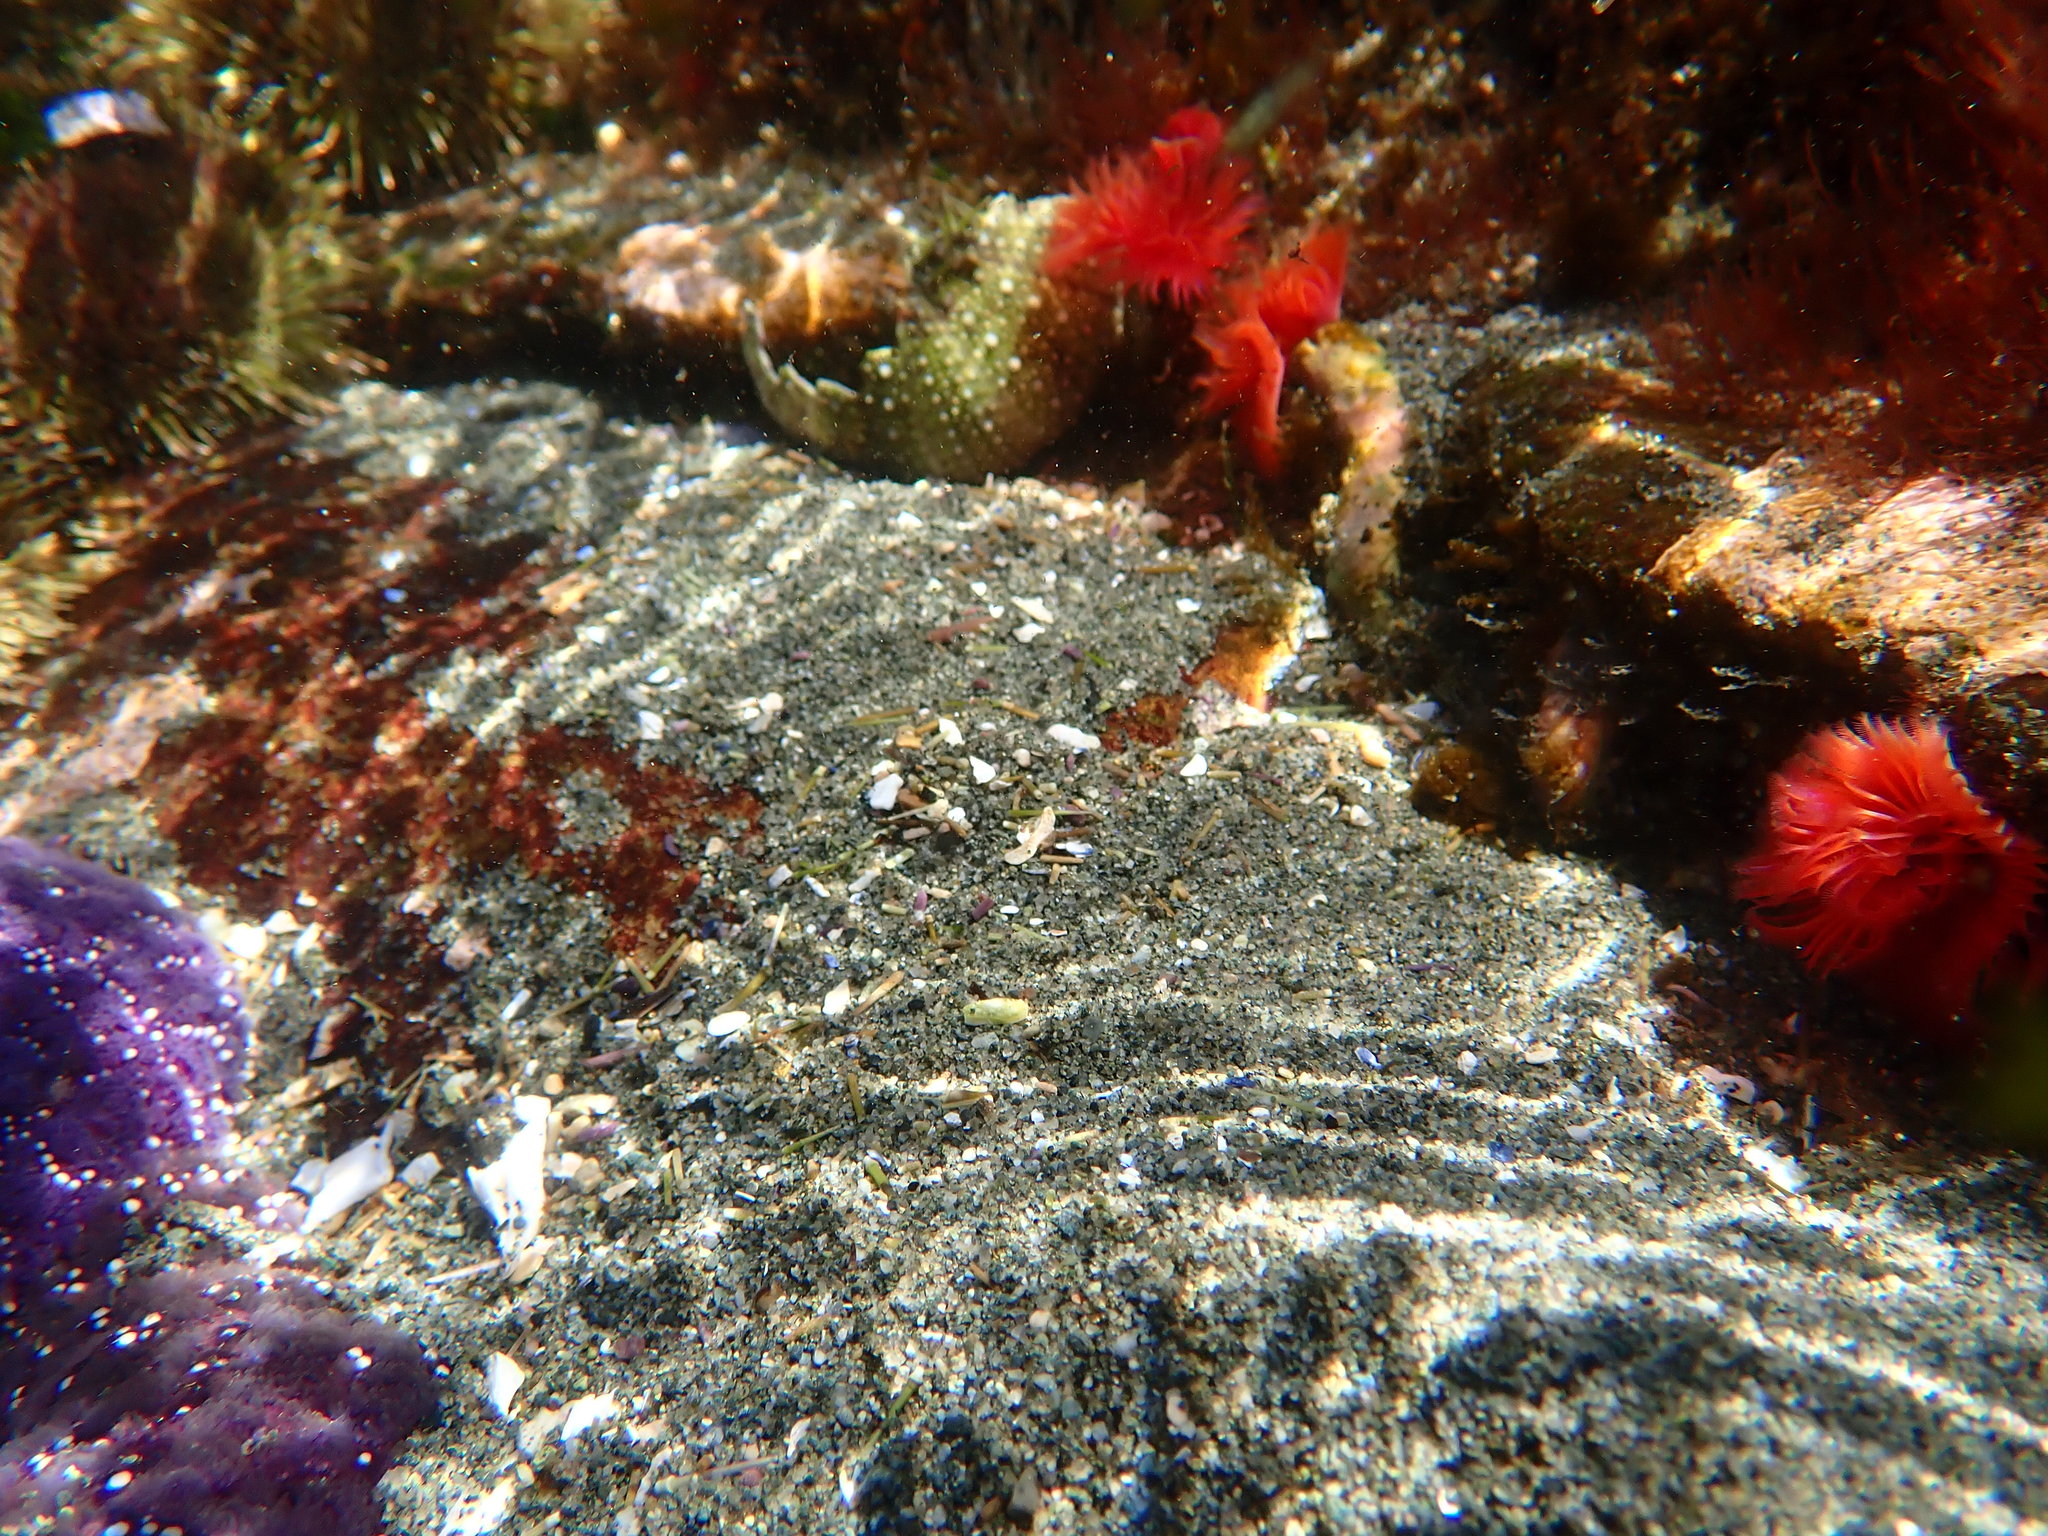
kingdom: Animalia
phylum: Annelida
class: Polychaeta
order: Sabellida
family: Serpulidae
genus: Serpula
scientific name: Serpula columbiana
